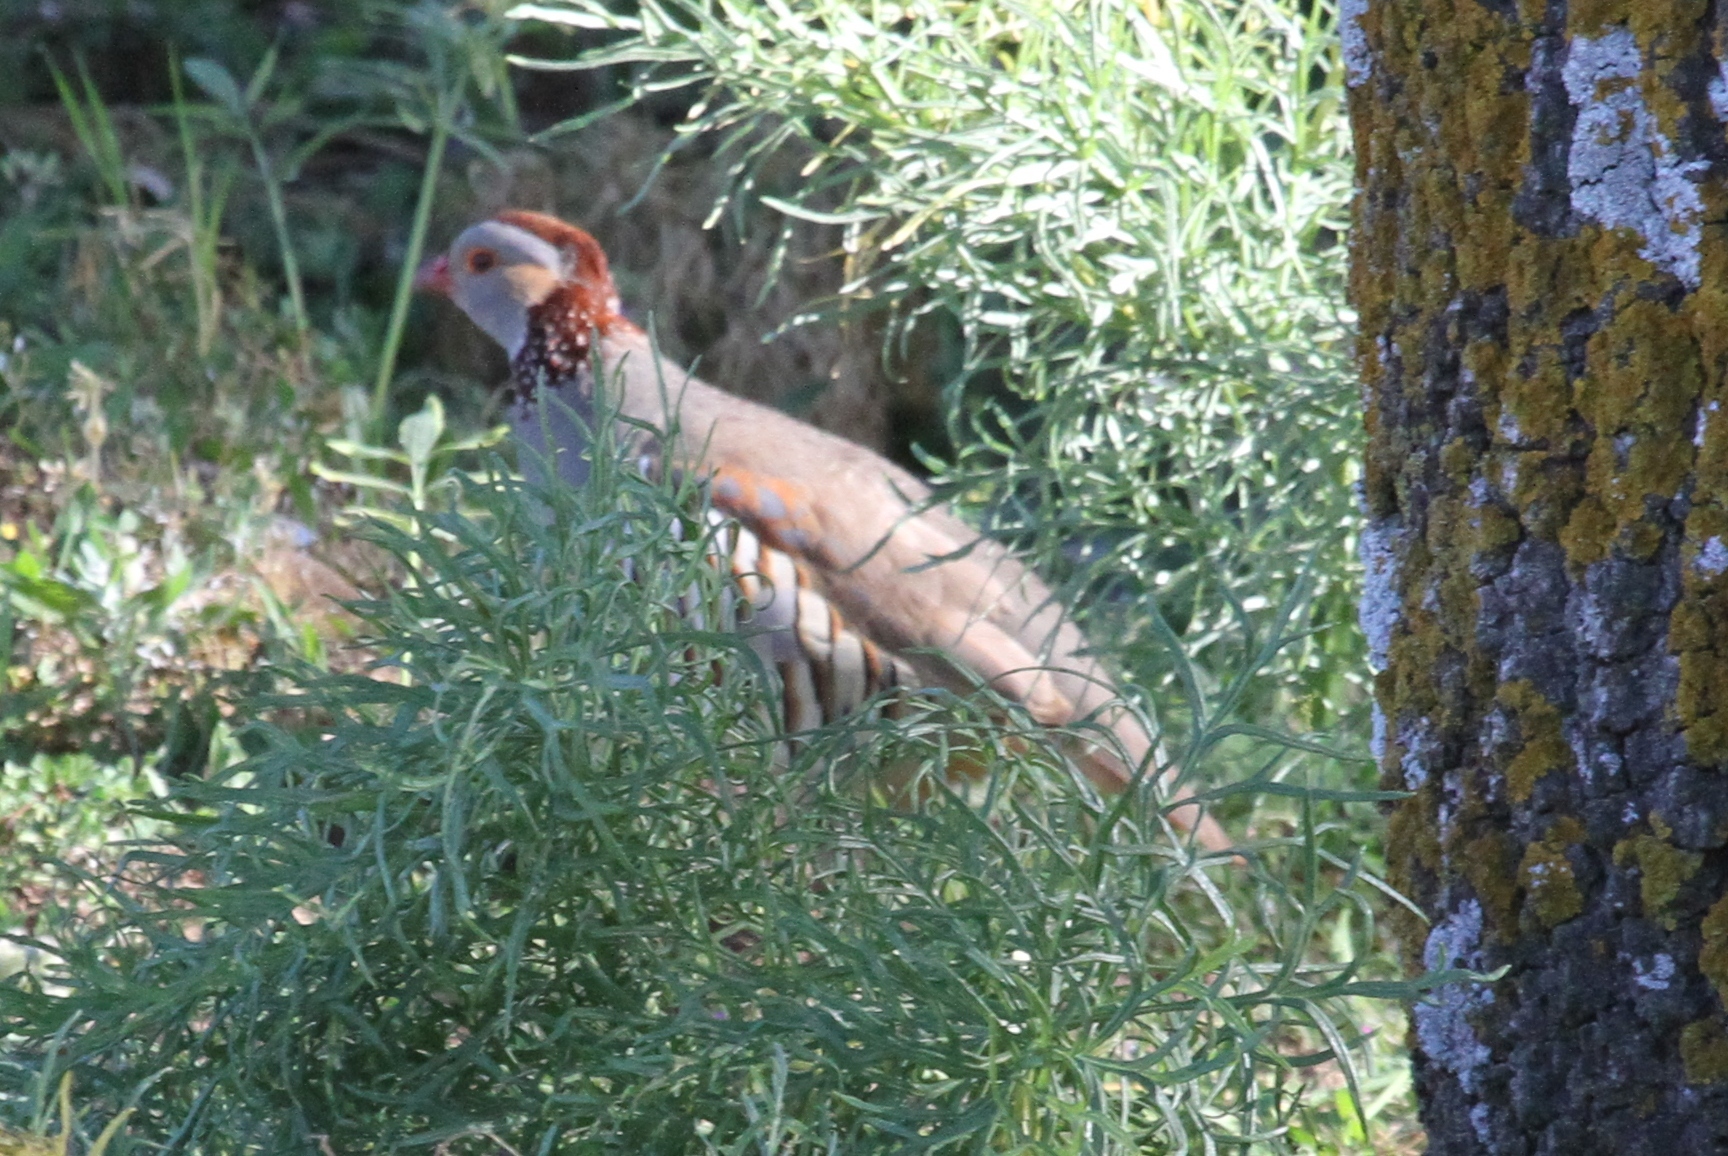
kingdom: Animalia
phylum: Chordata
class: Aves
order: Galliformes
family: Phasianidae
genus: Alectoris
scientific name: Alectoris barbara
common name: Barbary partridge
